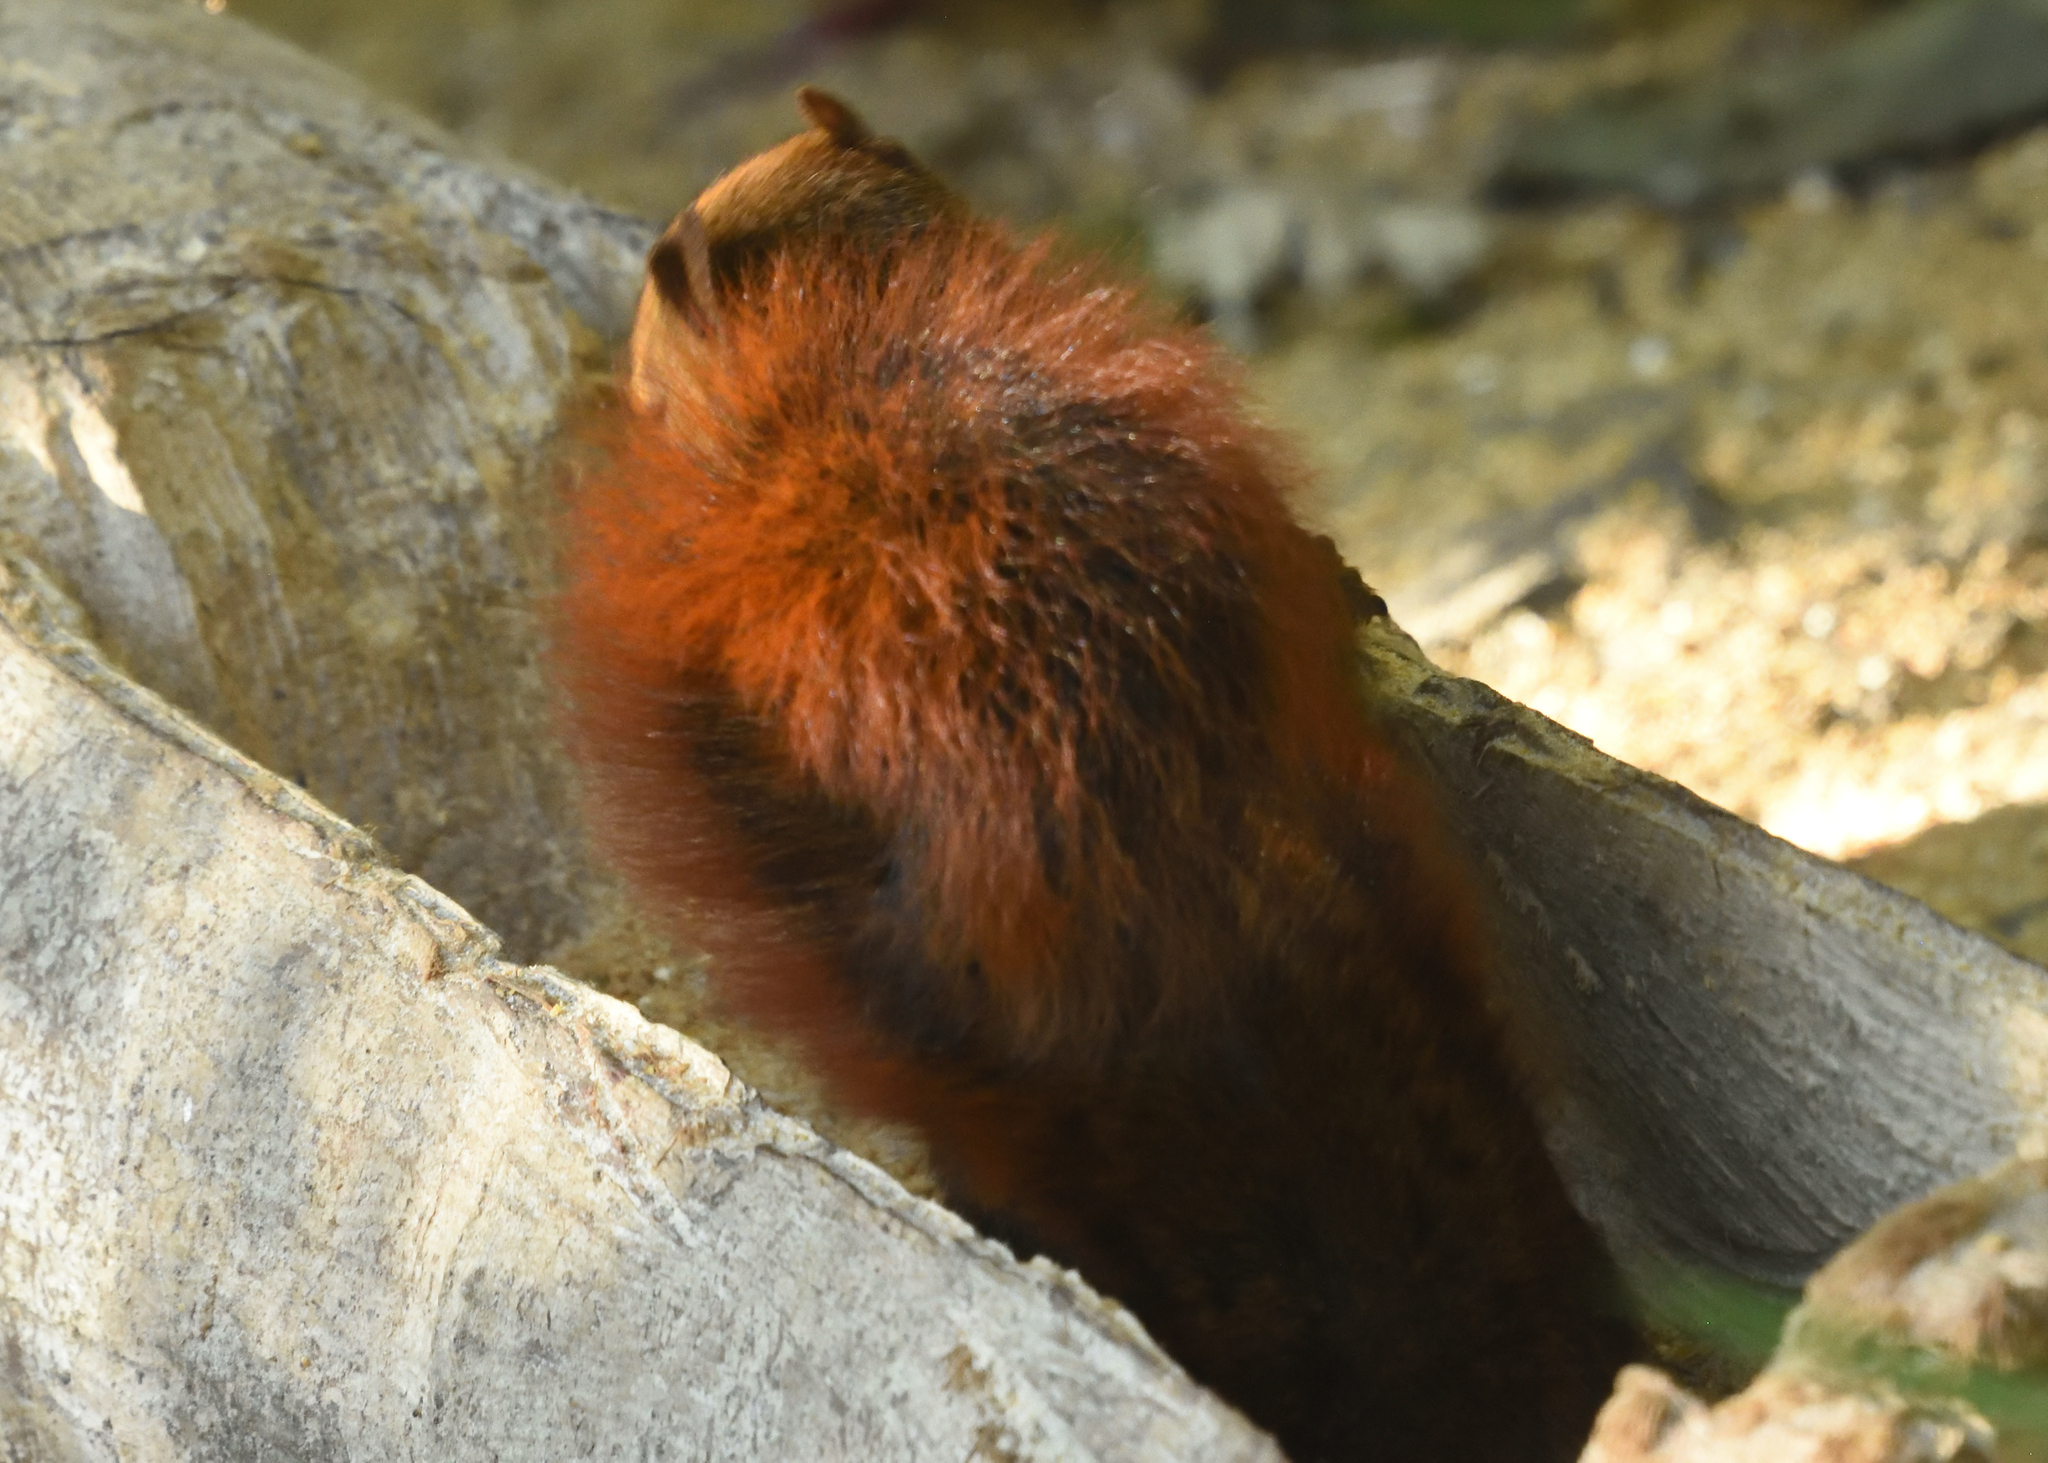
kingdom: Animalia
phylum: Chordata
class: Mammalia
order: Rodentia
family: Sciuridae
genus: Sciurus
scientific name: Sciurus granatensis
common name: Red-tailed squirrel
